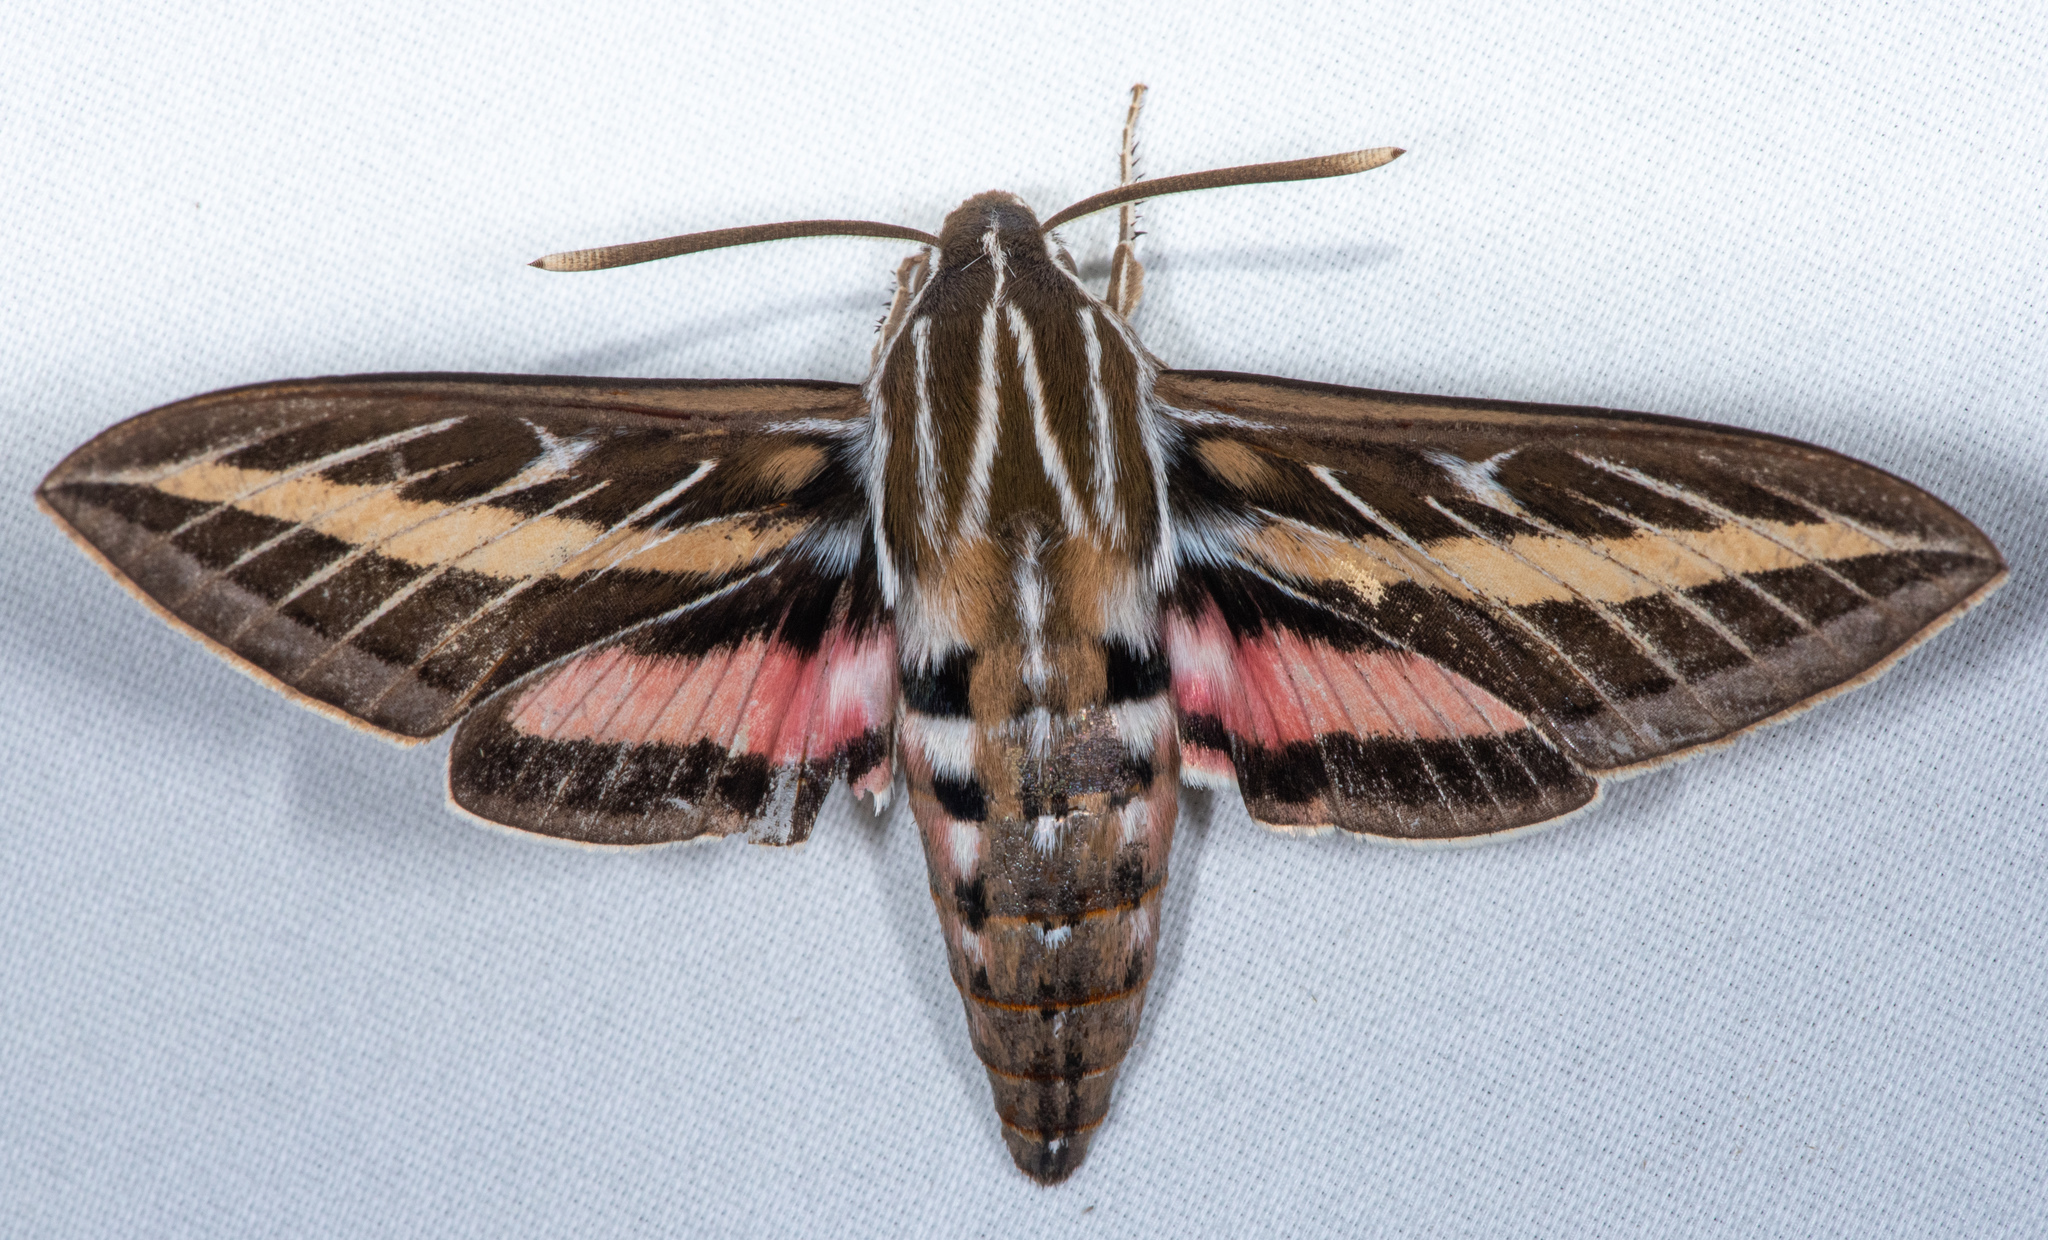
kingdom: Animalia
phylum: Arthropoda
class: Insecta
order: Lepidoptera
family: Sphingidae
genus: Hyles
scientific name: Hyles lineata
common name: White-lined sphinx
